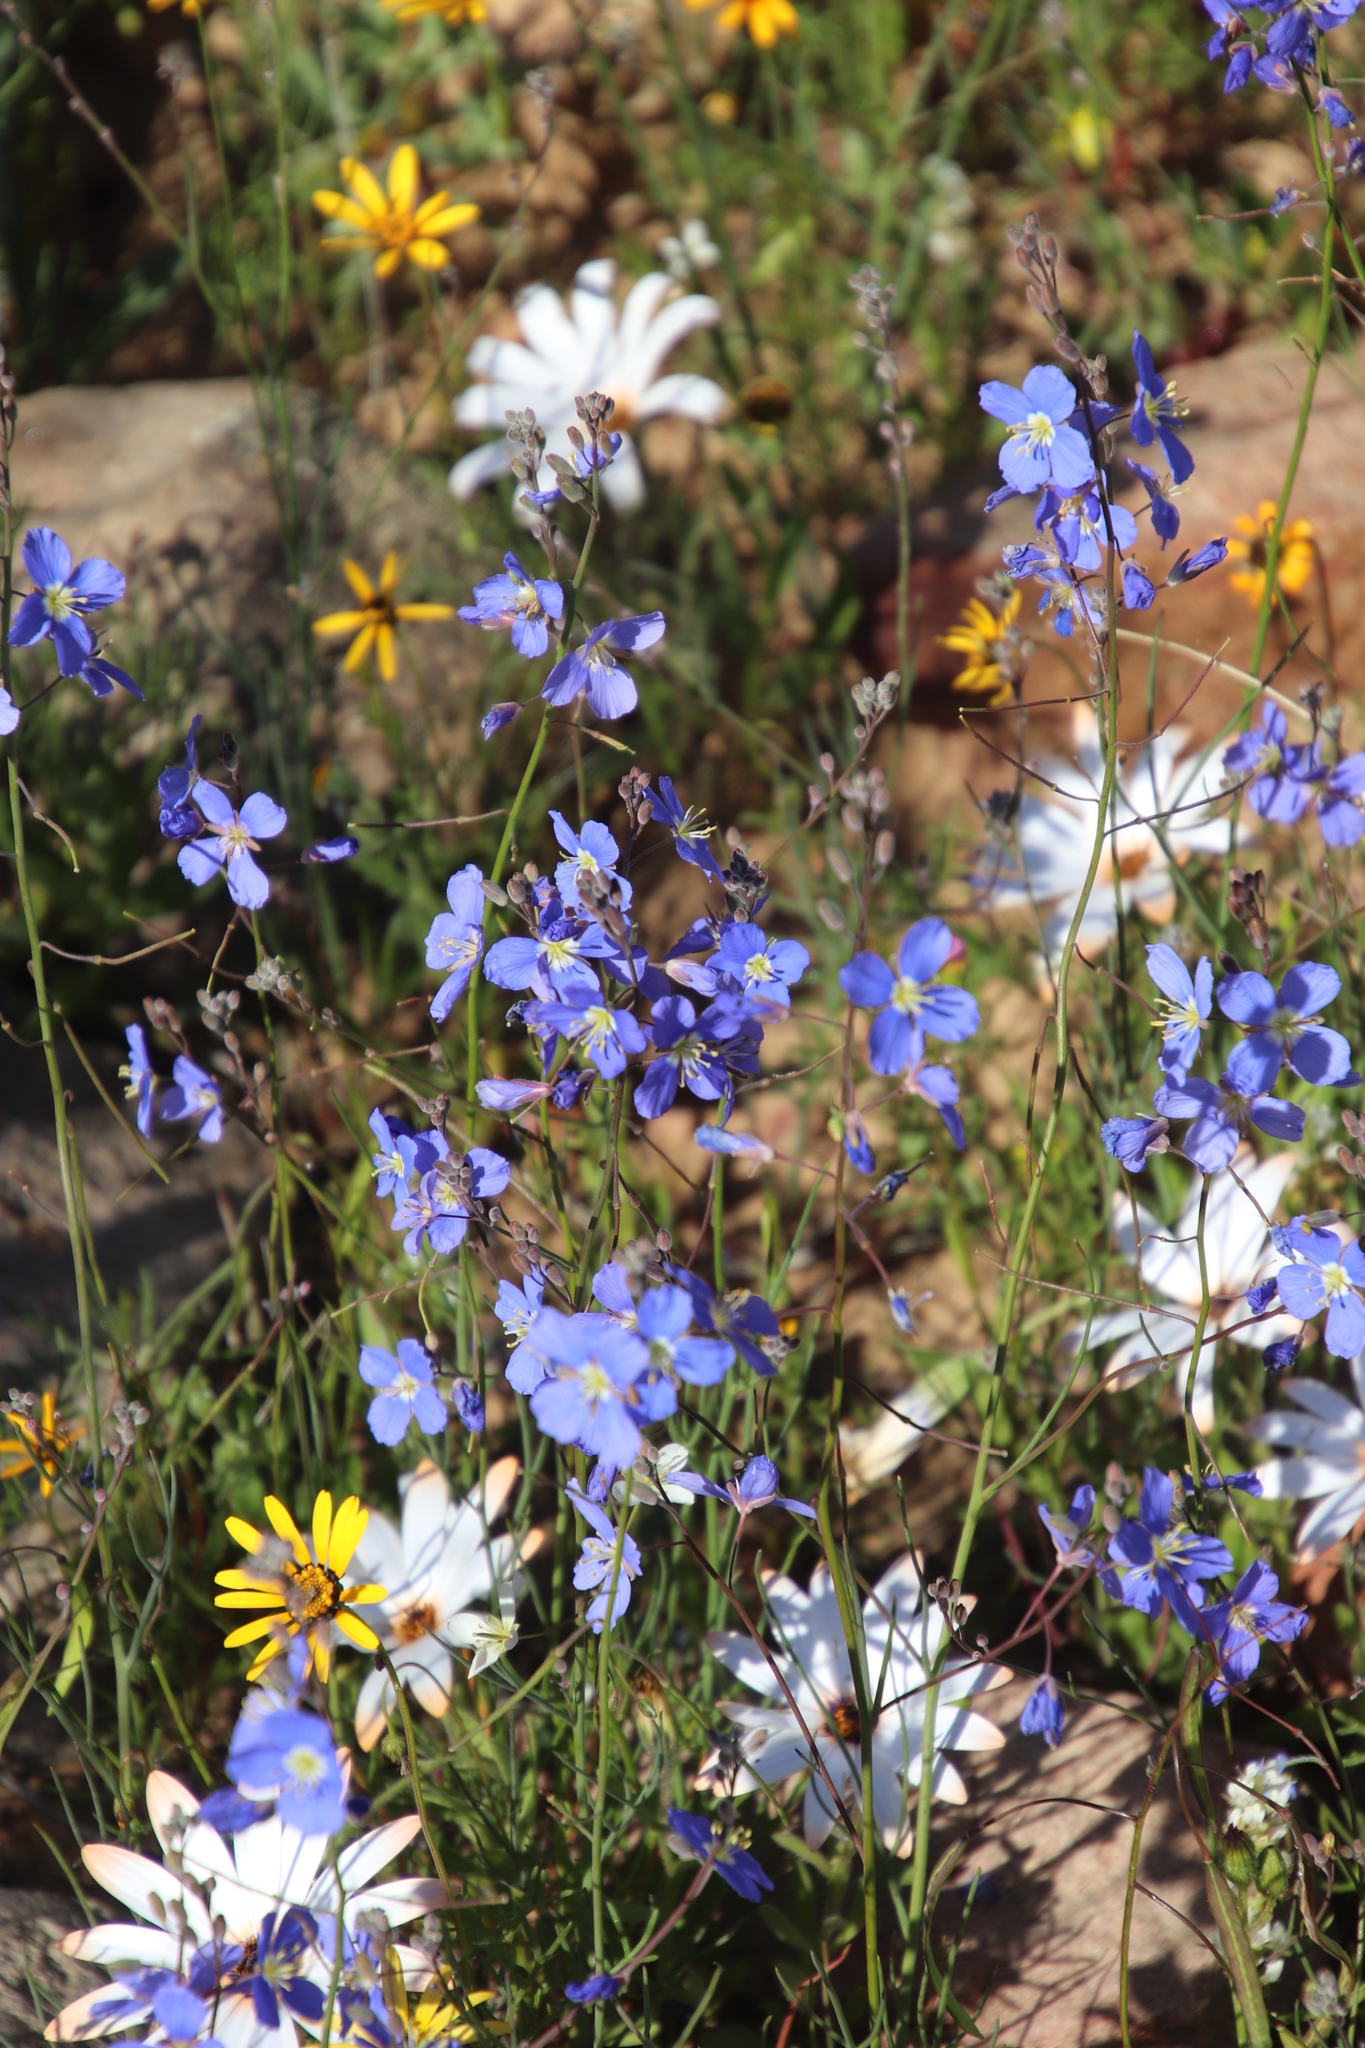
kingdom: Plantae
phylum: Tracheophyta
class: Magnoliopsida
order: Brassicales
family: Brassicaceae
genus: Heliophila
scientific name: Heliophila arenaria
